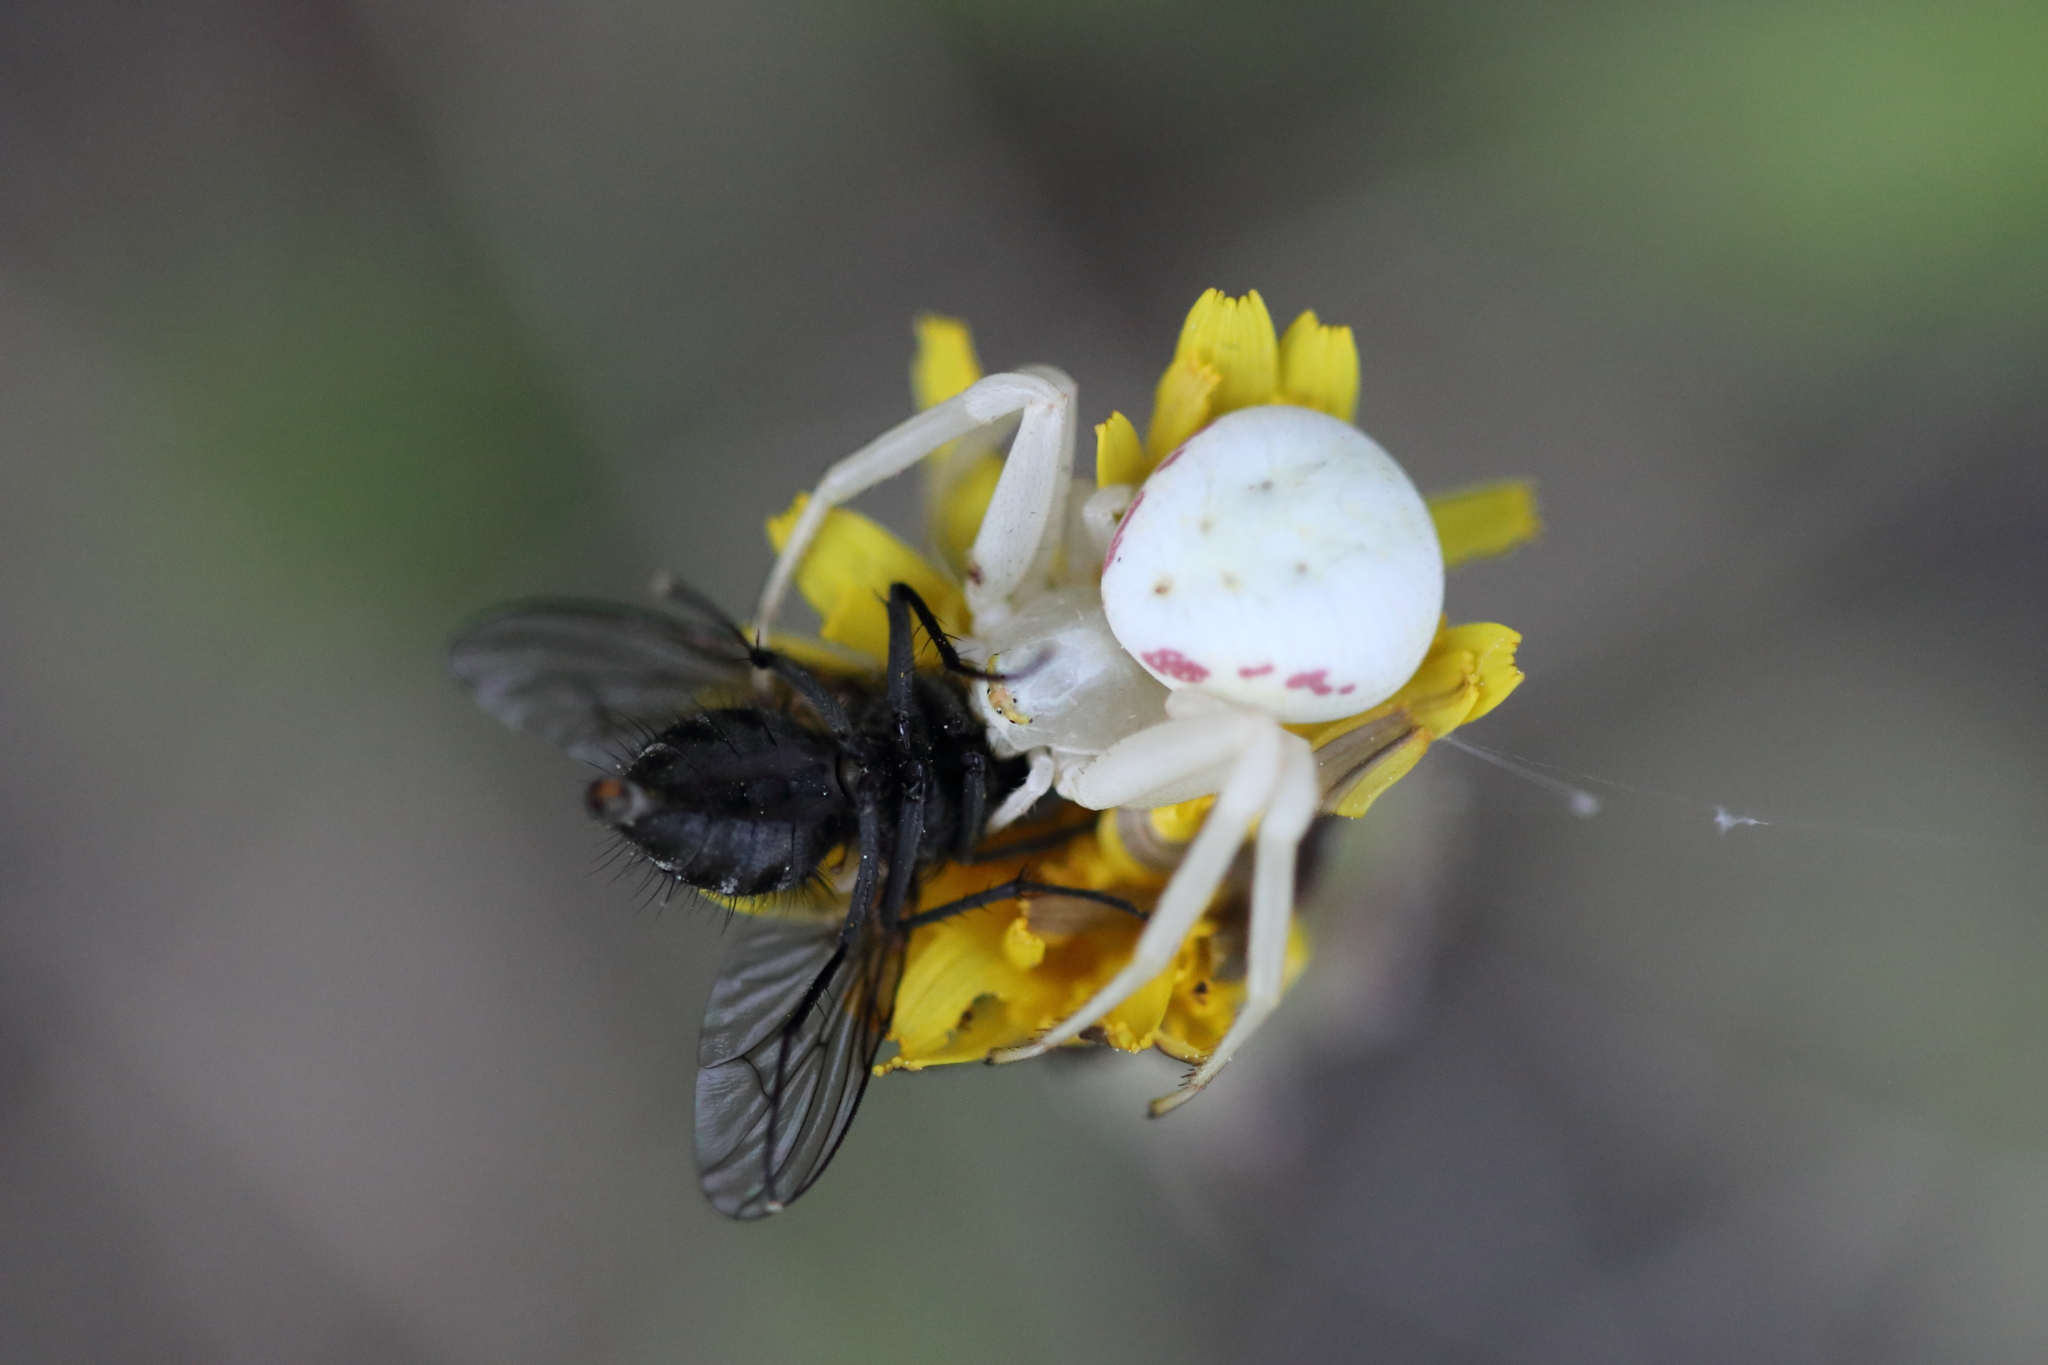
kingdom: Animalia
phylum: Arthropoda
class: Arachnida
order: Araneae
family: Thomisidae
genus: Misumena
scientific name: Misumena vatia
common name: Goldenrod crab spider
